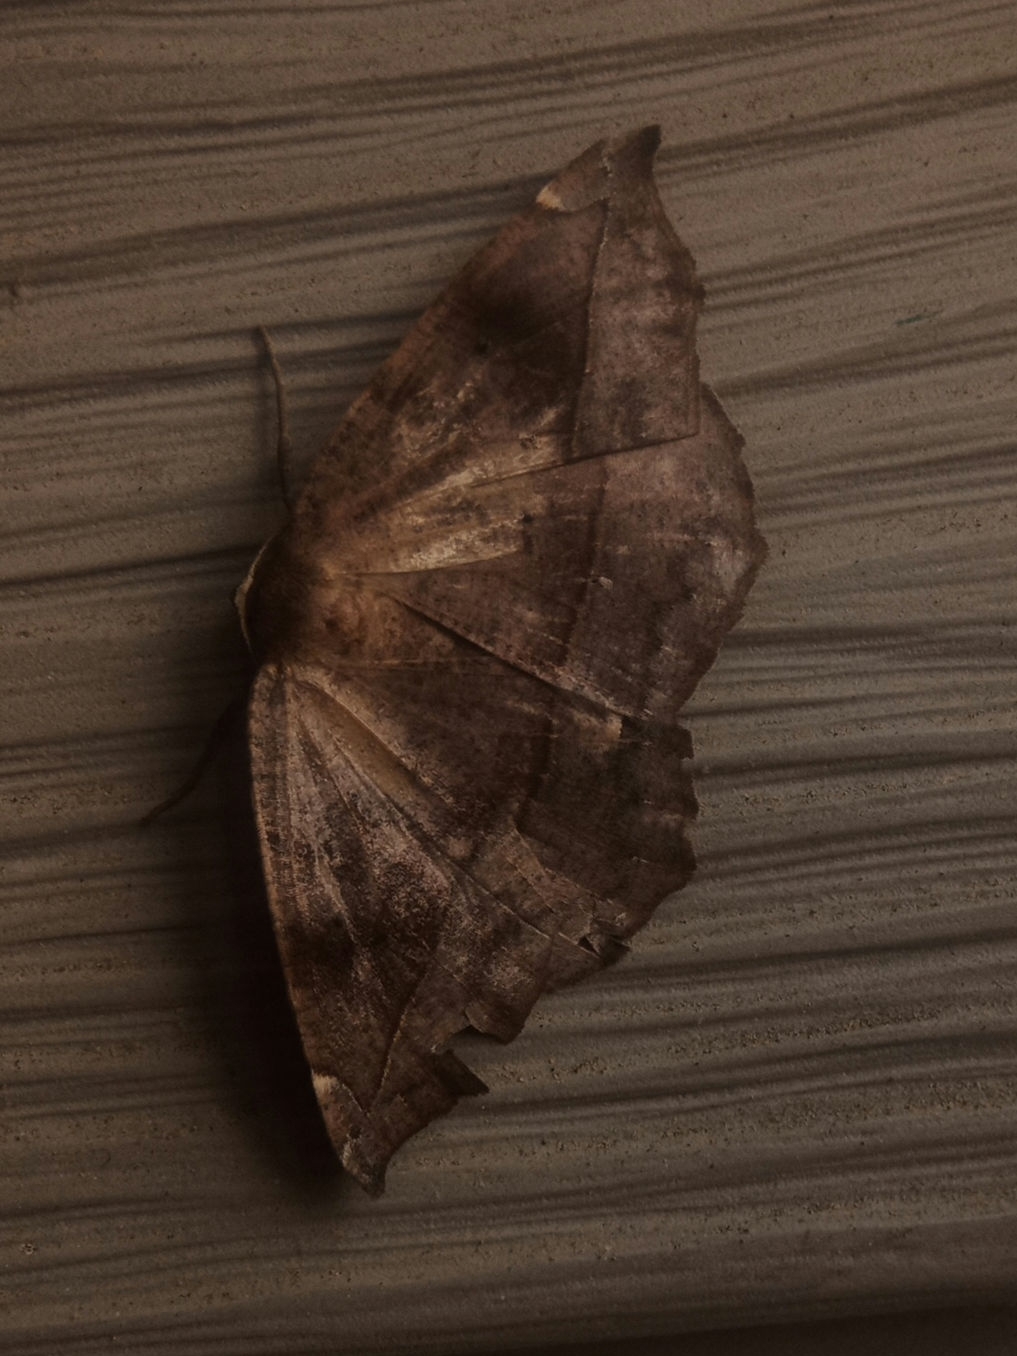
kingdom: Animalia
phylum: Arthropoda
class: Insecta
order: Lepidoptera
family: Geometridae
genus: Eutrapela
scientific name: Eutrapela clemataria
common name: Curved-toothed geometer
